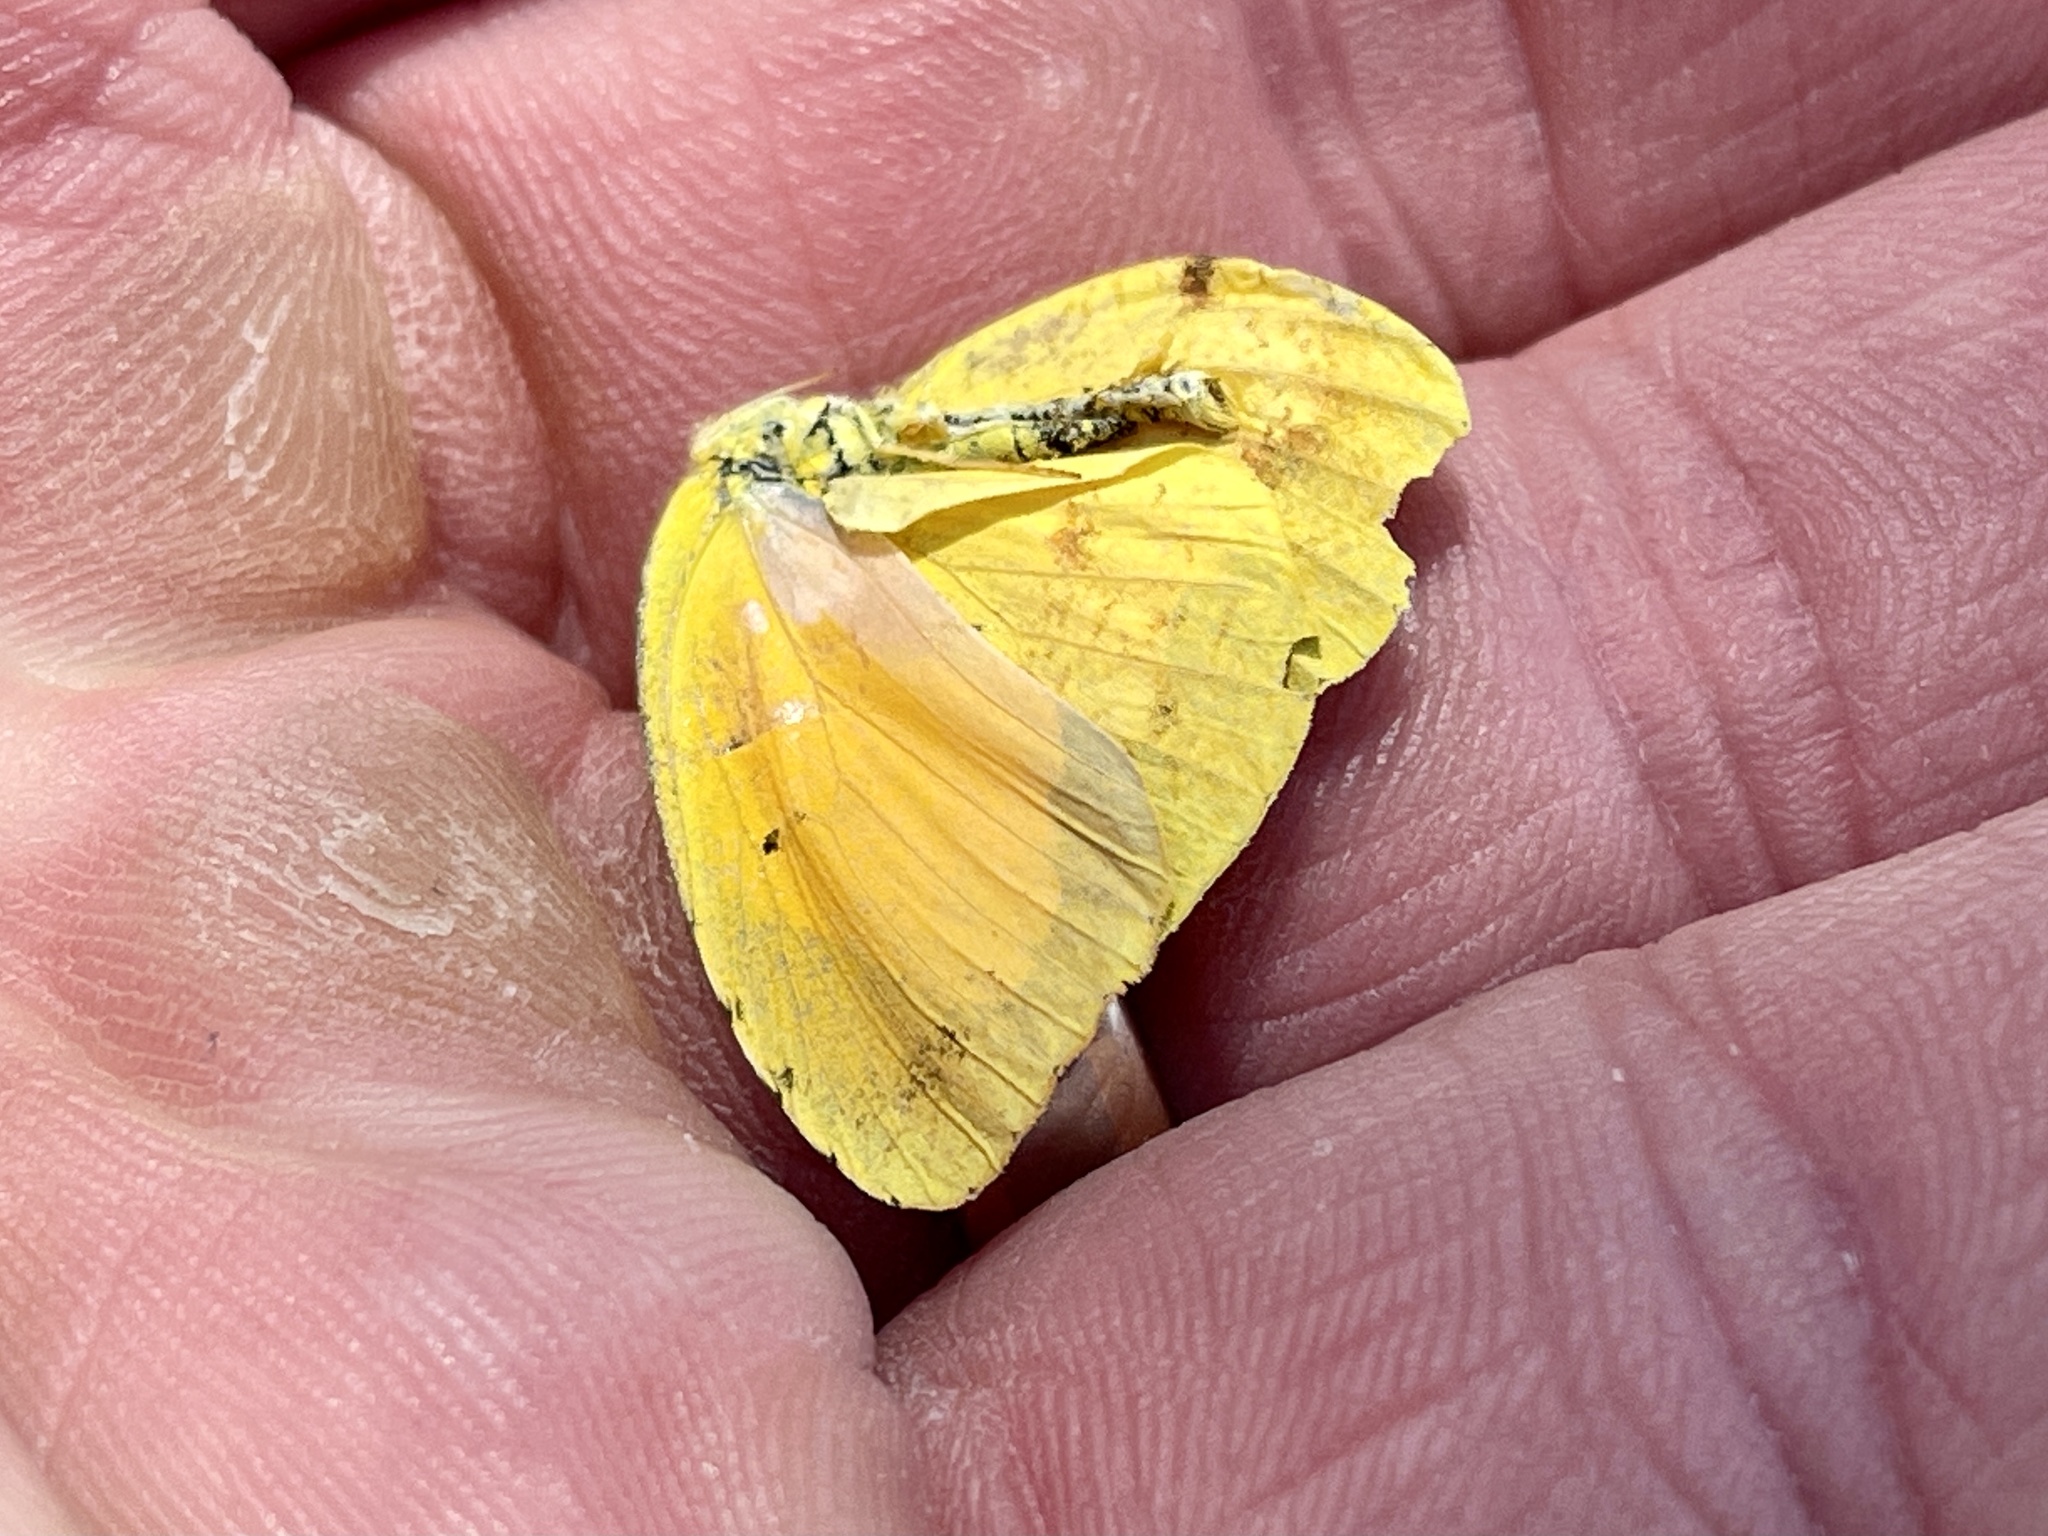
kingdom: Animalia
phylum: Arthropoda
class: Insecta
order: Lepidoptera
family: Pieridae
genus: Abaeis
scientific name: Abaeis nicippe
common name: Sleepy orange
